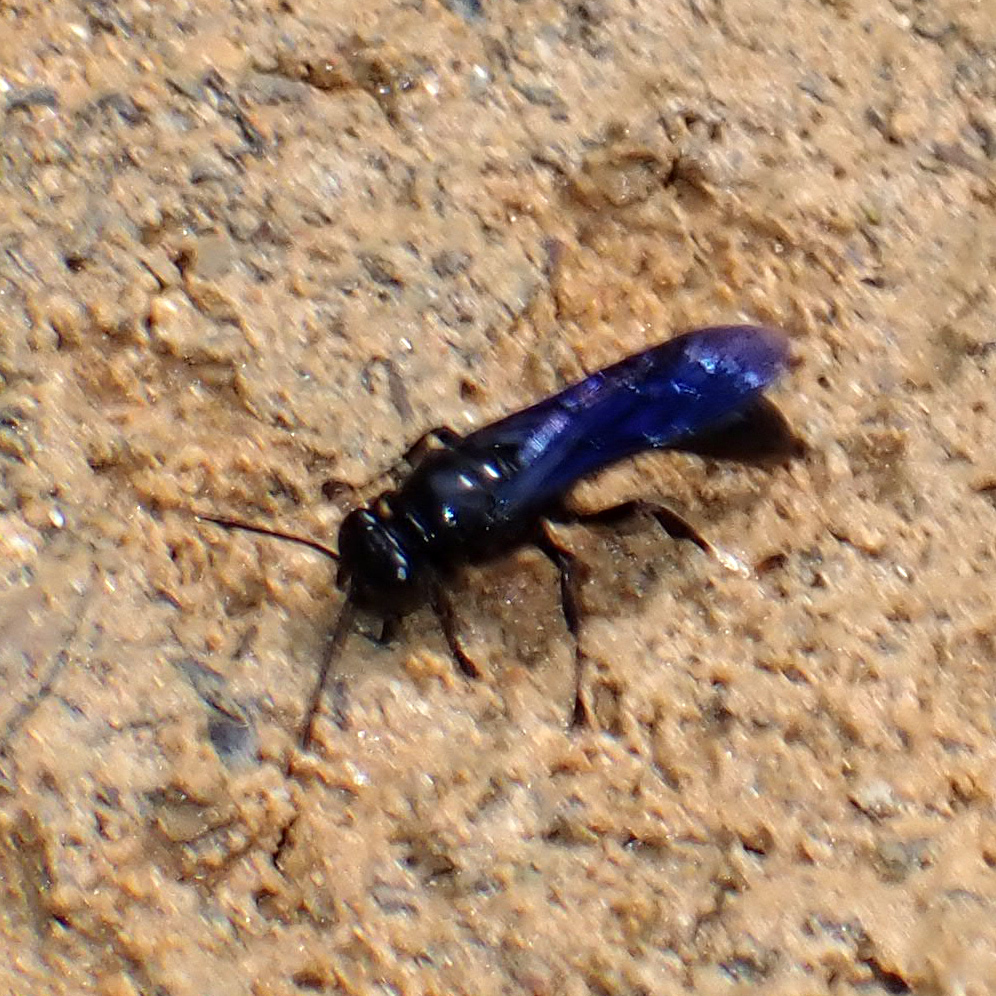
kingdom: Animalia
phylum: Arthropoda
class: Insecta
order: Hymenoptera
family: Crabronidae
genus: Trypoxylon
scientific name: Trypoxylon politum
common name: Organ-pipe mud-dauber wasp
